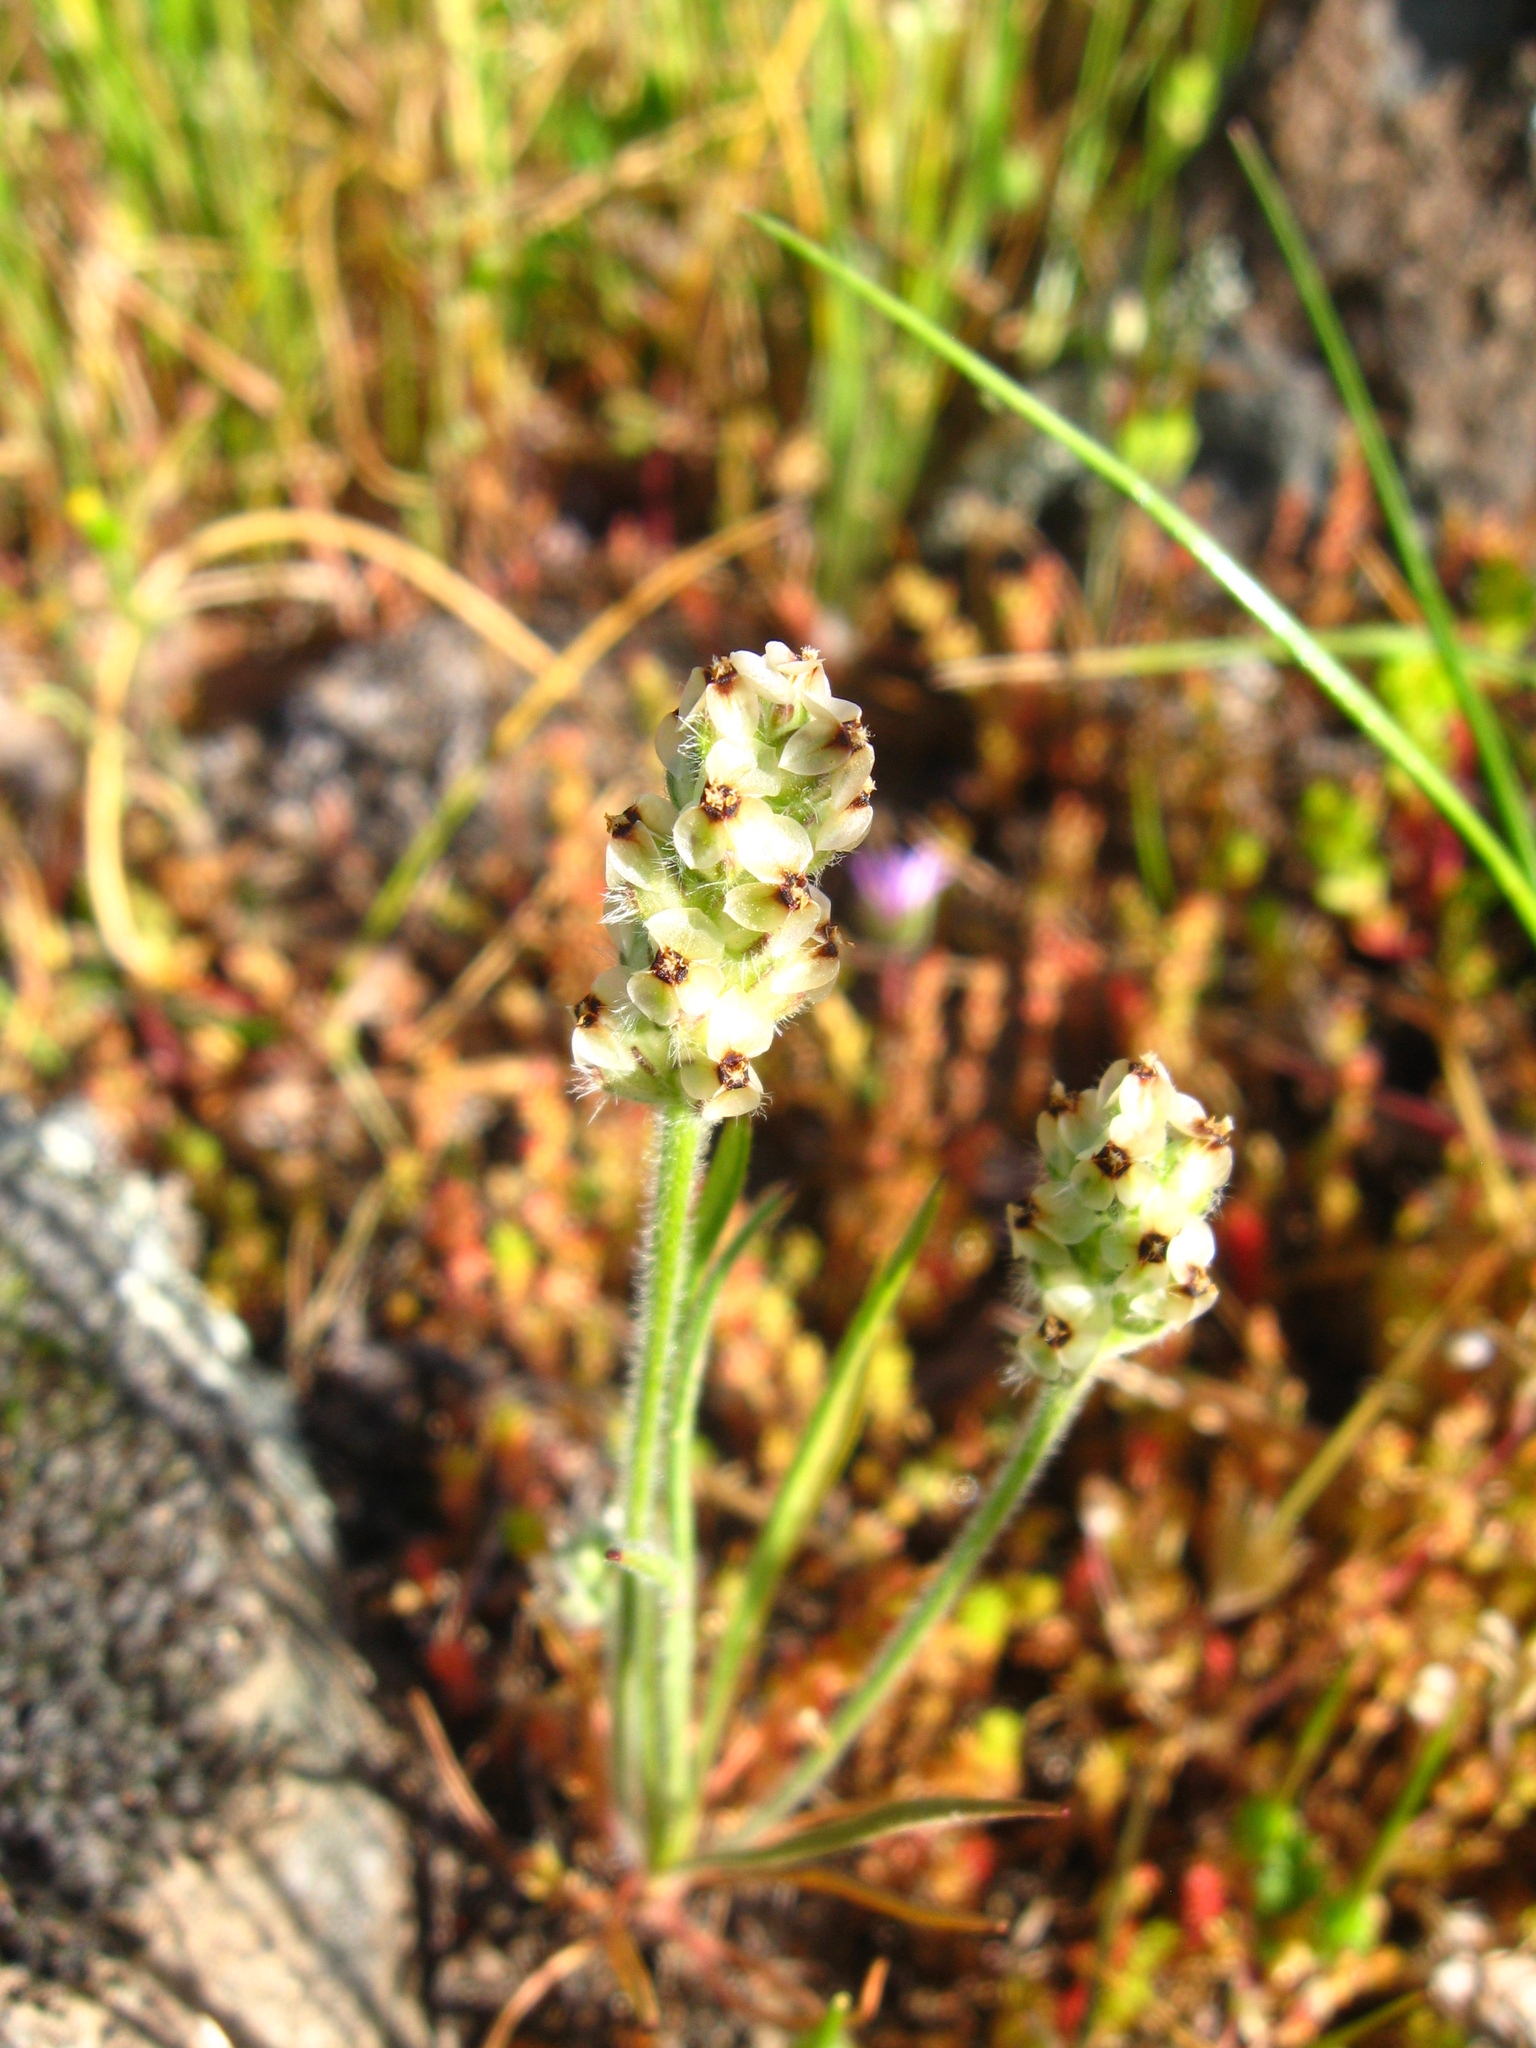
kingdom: Plantae
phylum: Tracheophyta
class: Magnoliopsida
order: Lamiales
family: Plantaginaceae
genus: Plantago
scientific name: Plantago erecta
